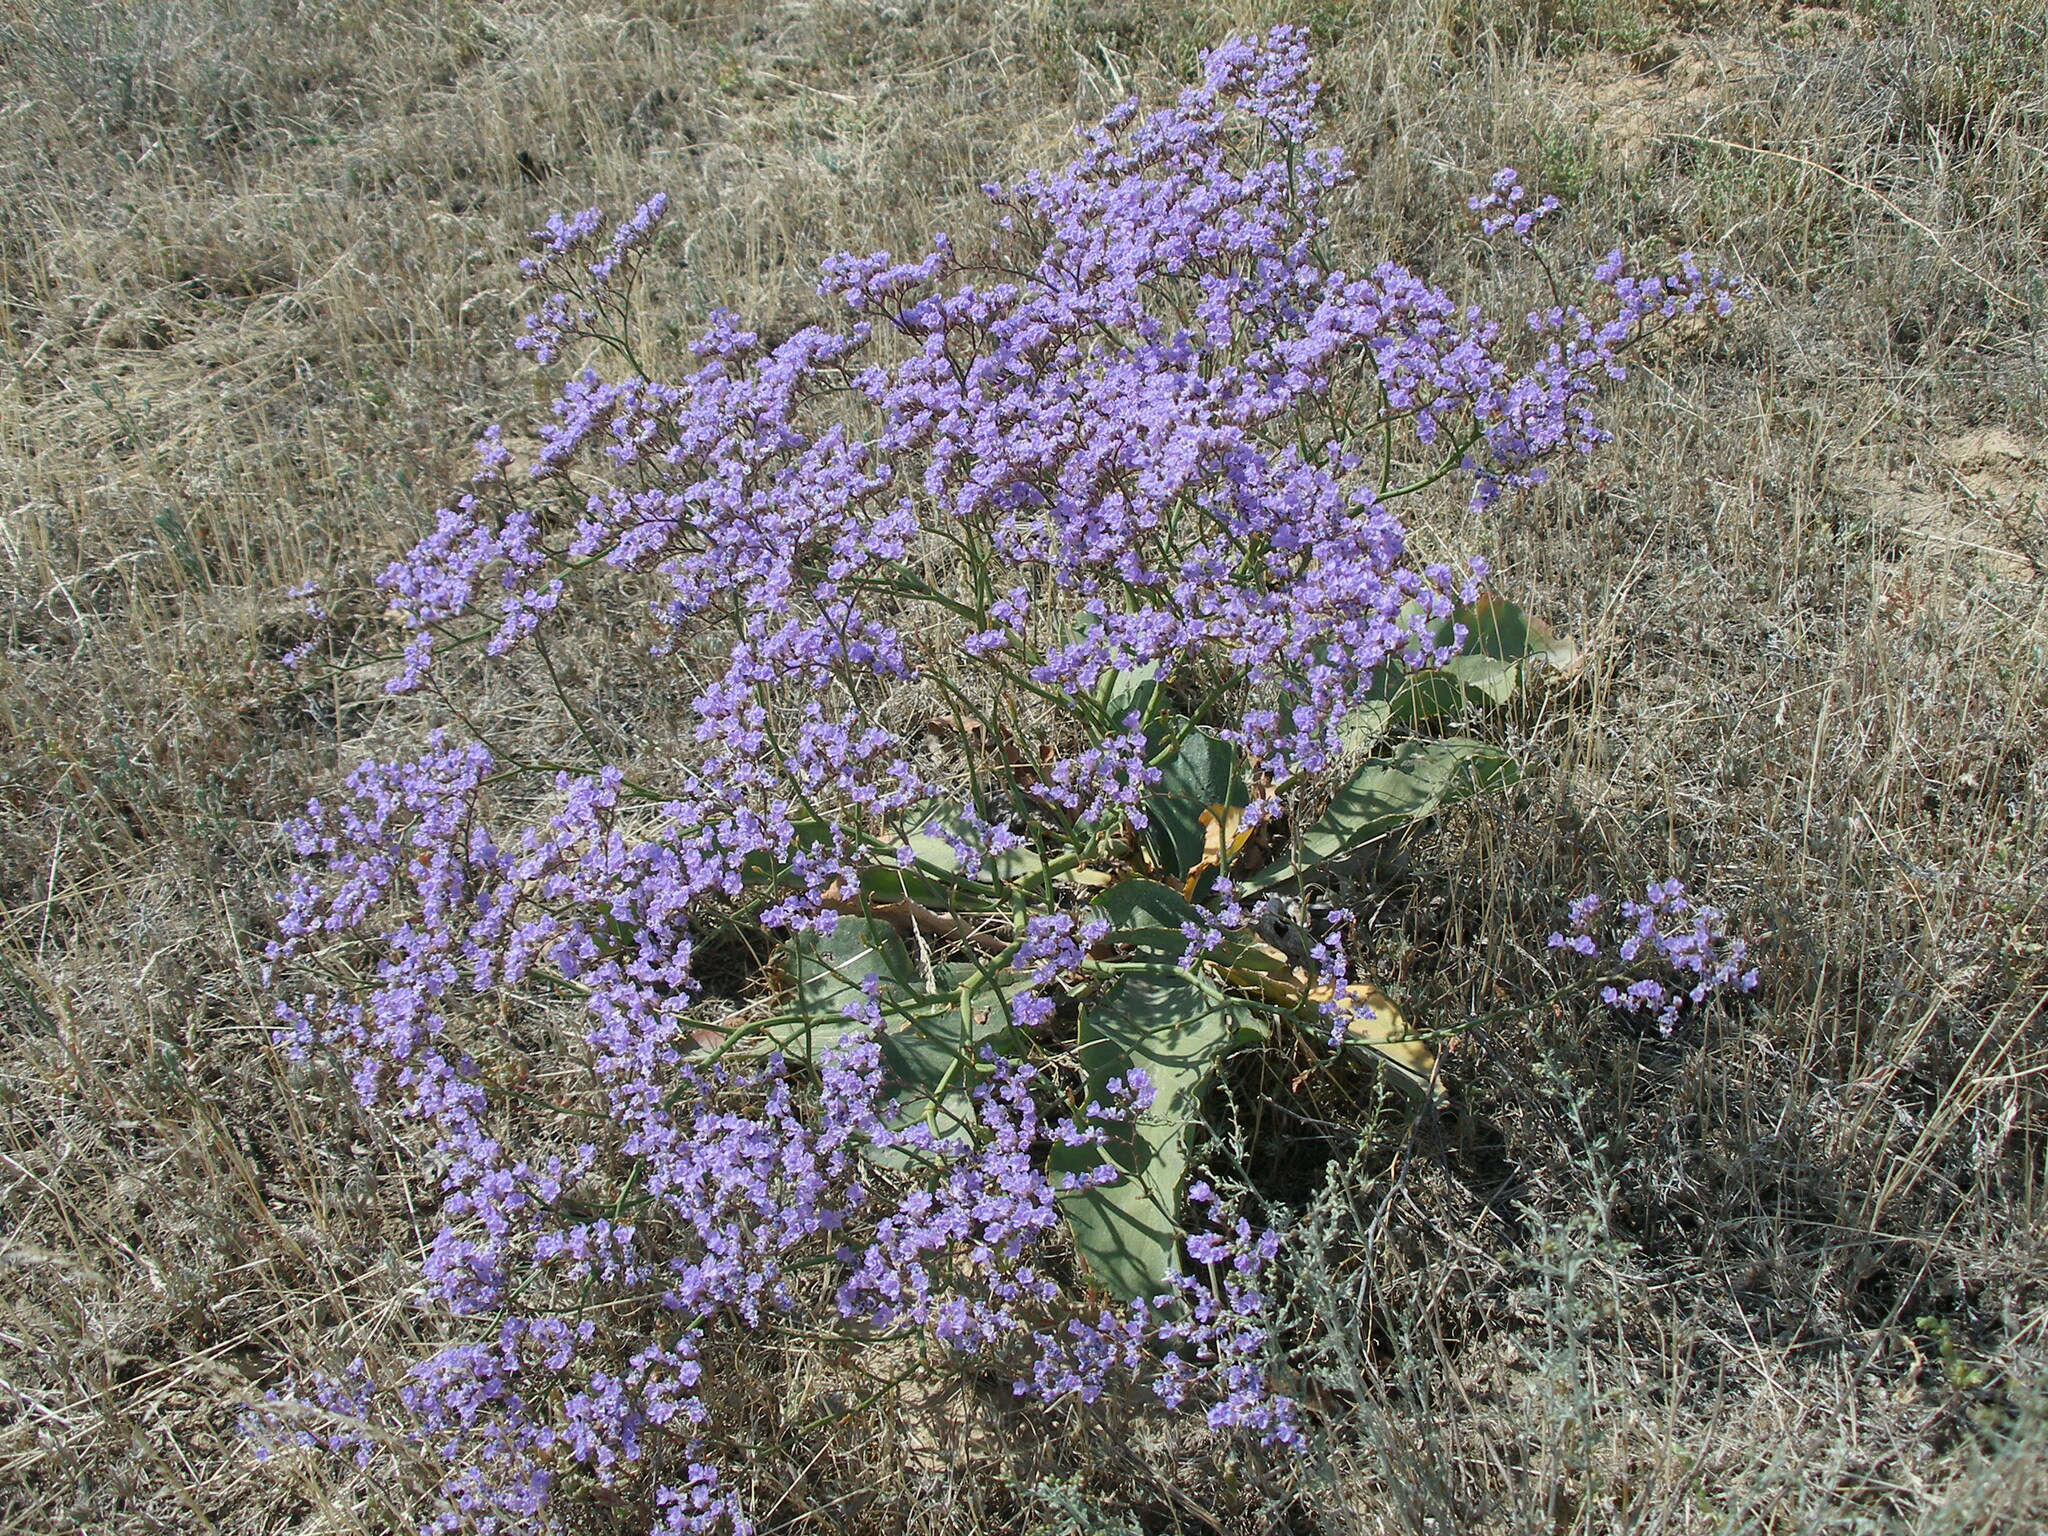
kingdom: Plantae
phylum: Tracheophyta
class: Magnoliopsida
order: Caryophyllales
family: Plumbaginaceae
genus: Limonium
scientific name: Limonium gmelini
